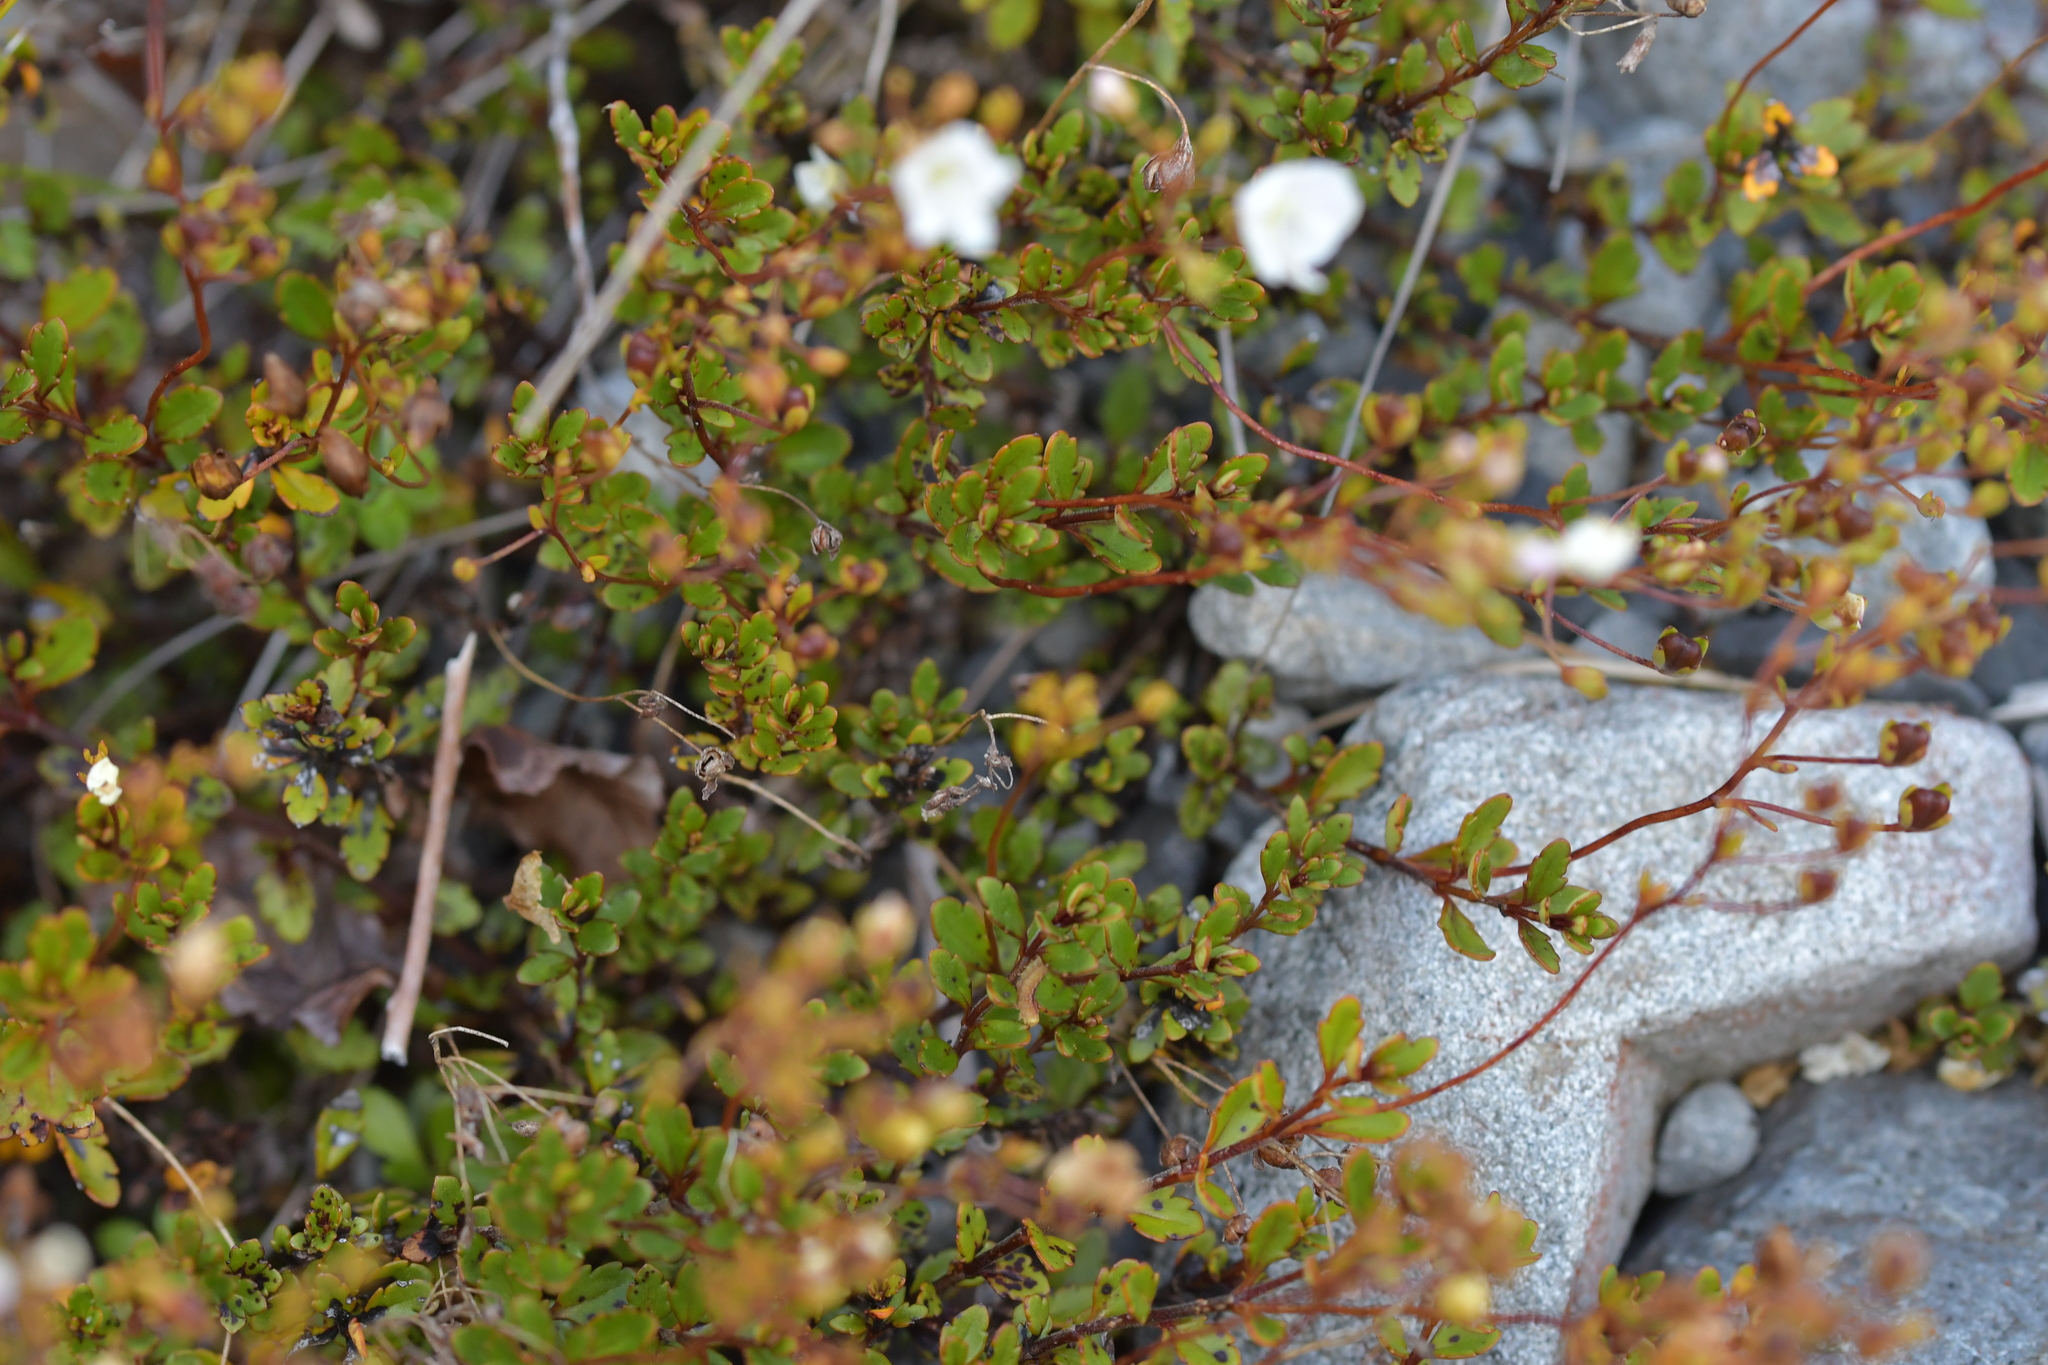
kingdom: Plantae
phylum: Tracheophyta
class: Magnoliopsida
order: Lamiales
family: Plantaginaceae
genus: Veronica
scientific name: Veronica lyallii
